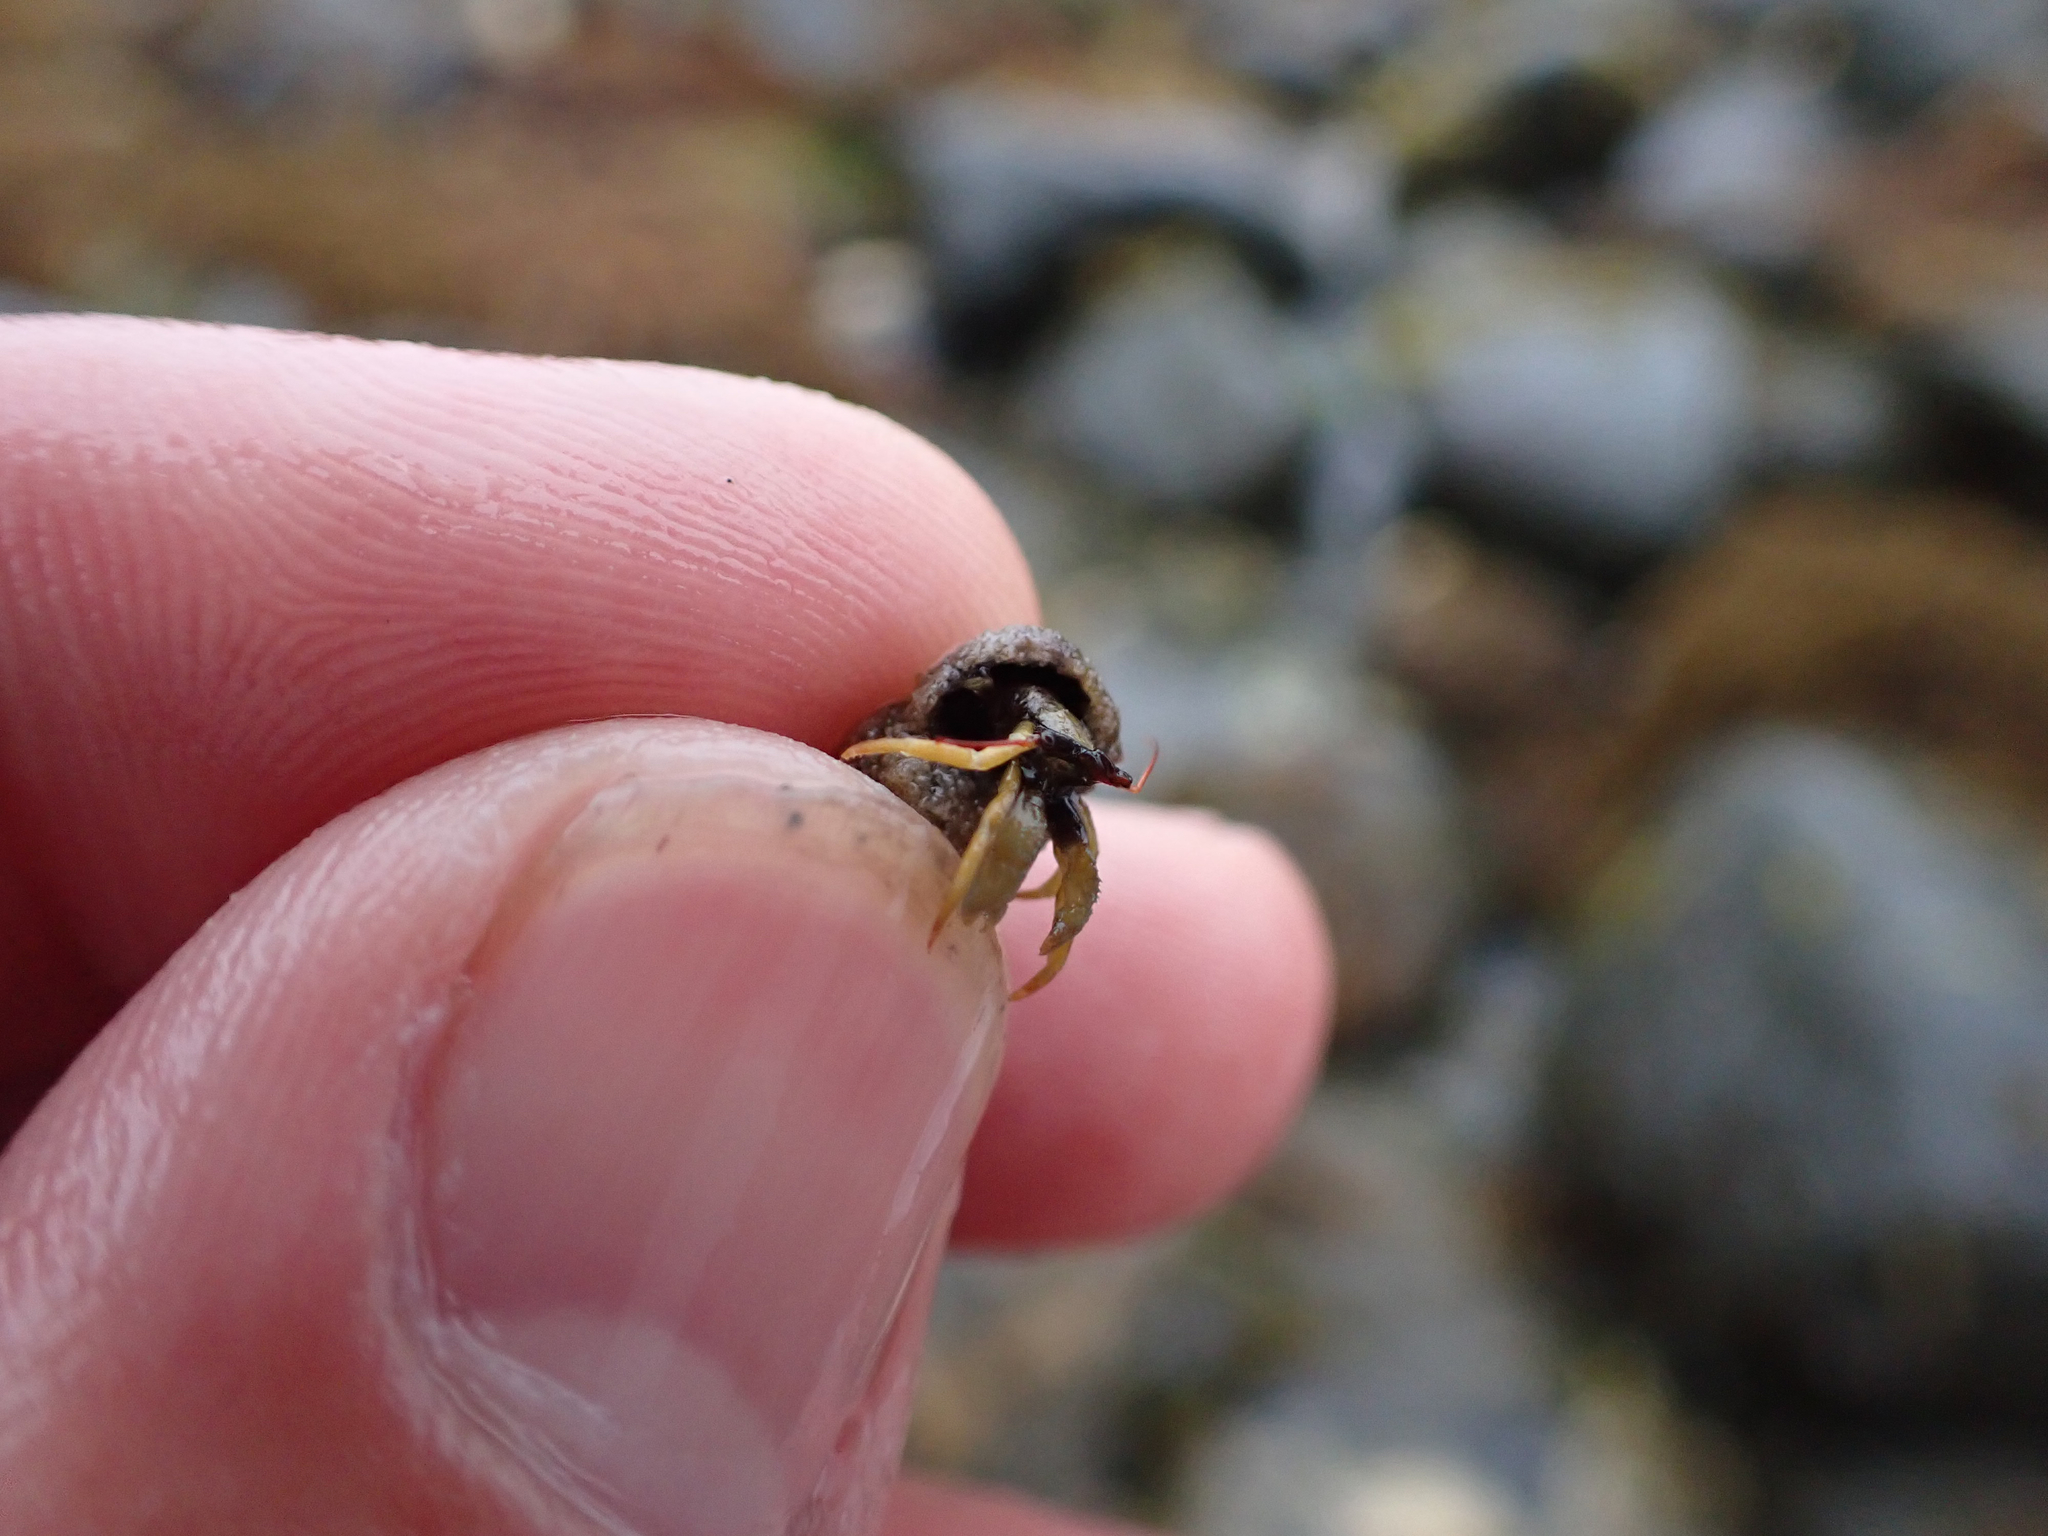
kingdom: Animalia
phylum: Arthropoda
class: Malacostraca
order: Decapoda
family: Paguridae
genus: Pagurus
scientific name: Pagurus granosimanus
